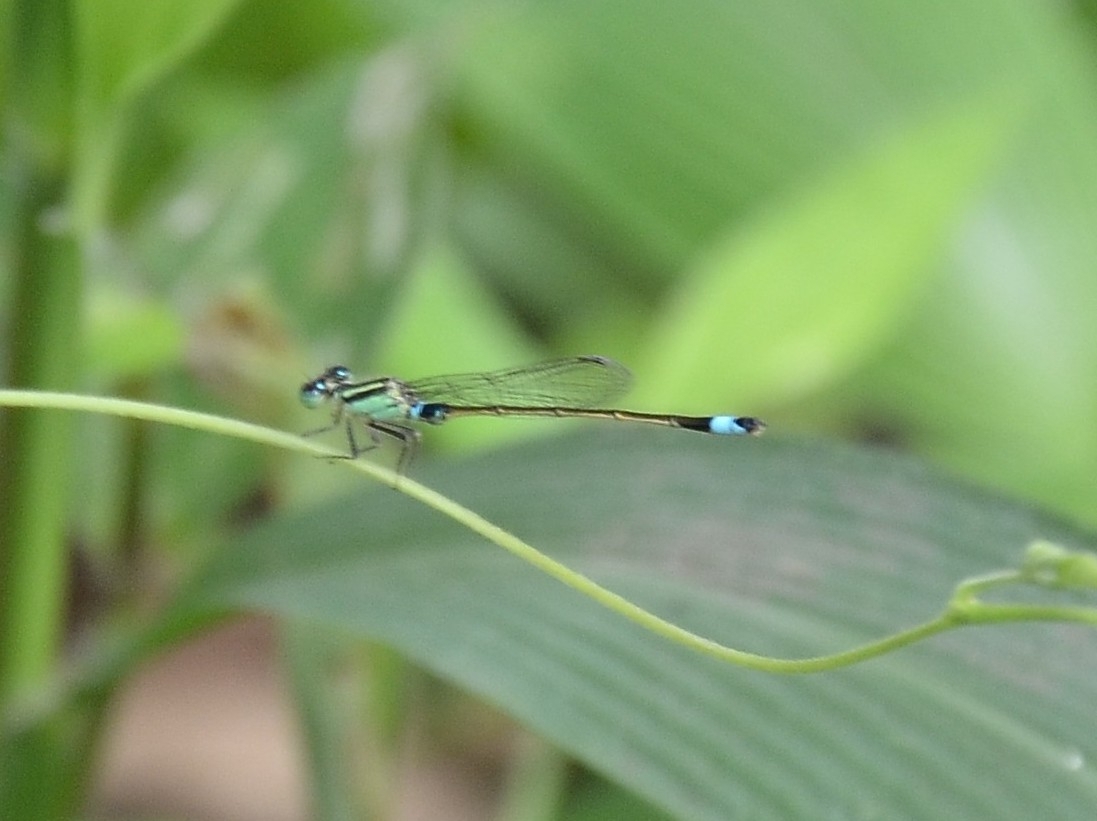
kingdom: Animalia
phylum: Arthropoda
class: Insecta
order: Odonata
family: Coenagrionidae
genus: Ischnura
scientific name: Ischnura senegalensis
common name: Tropical bluetail
